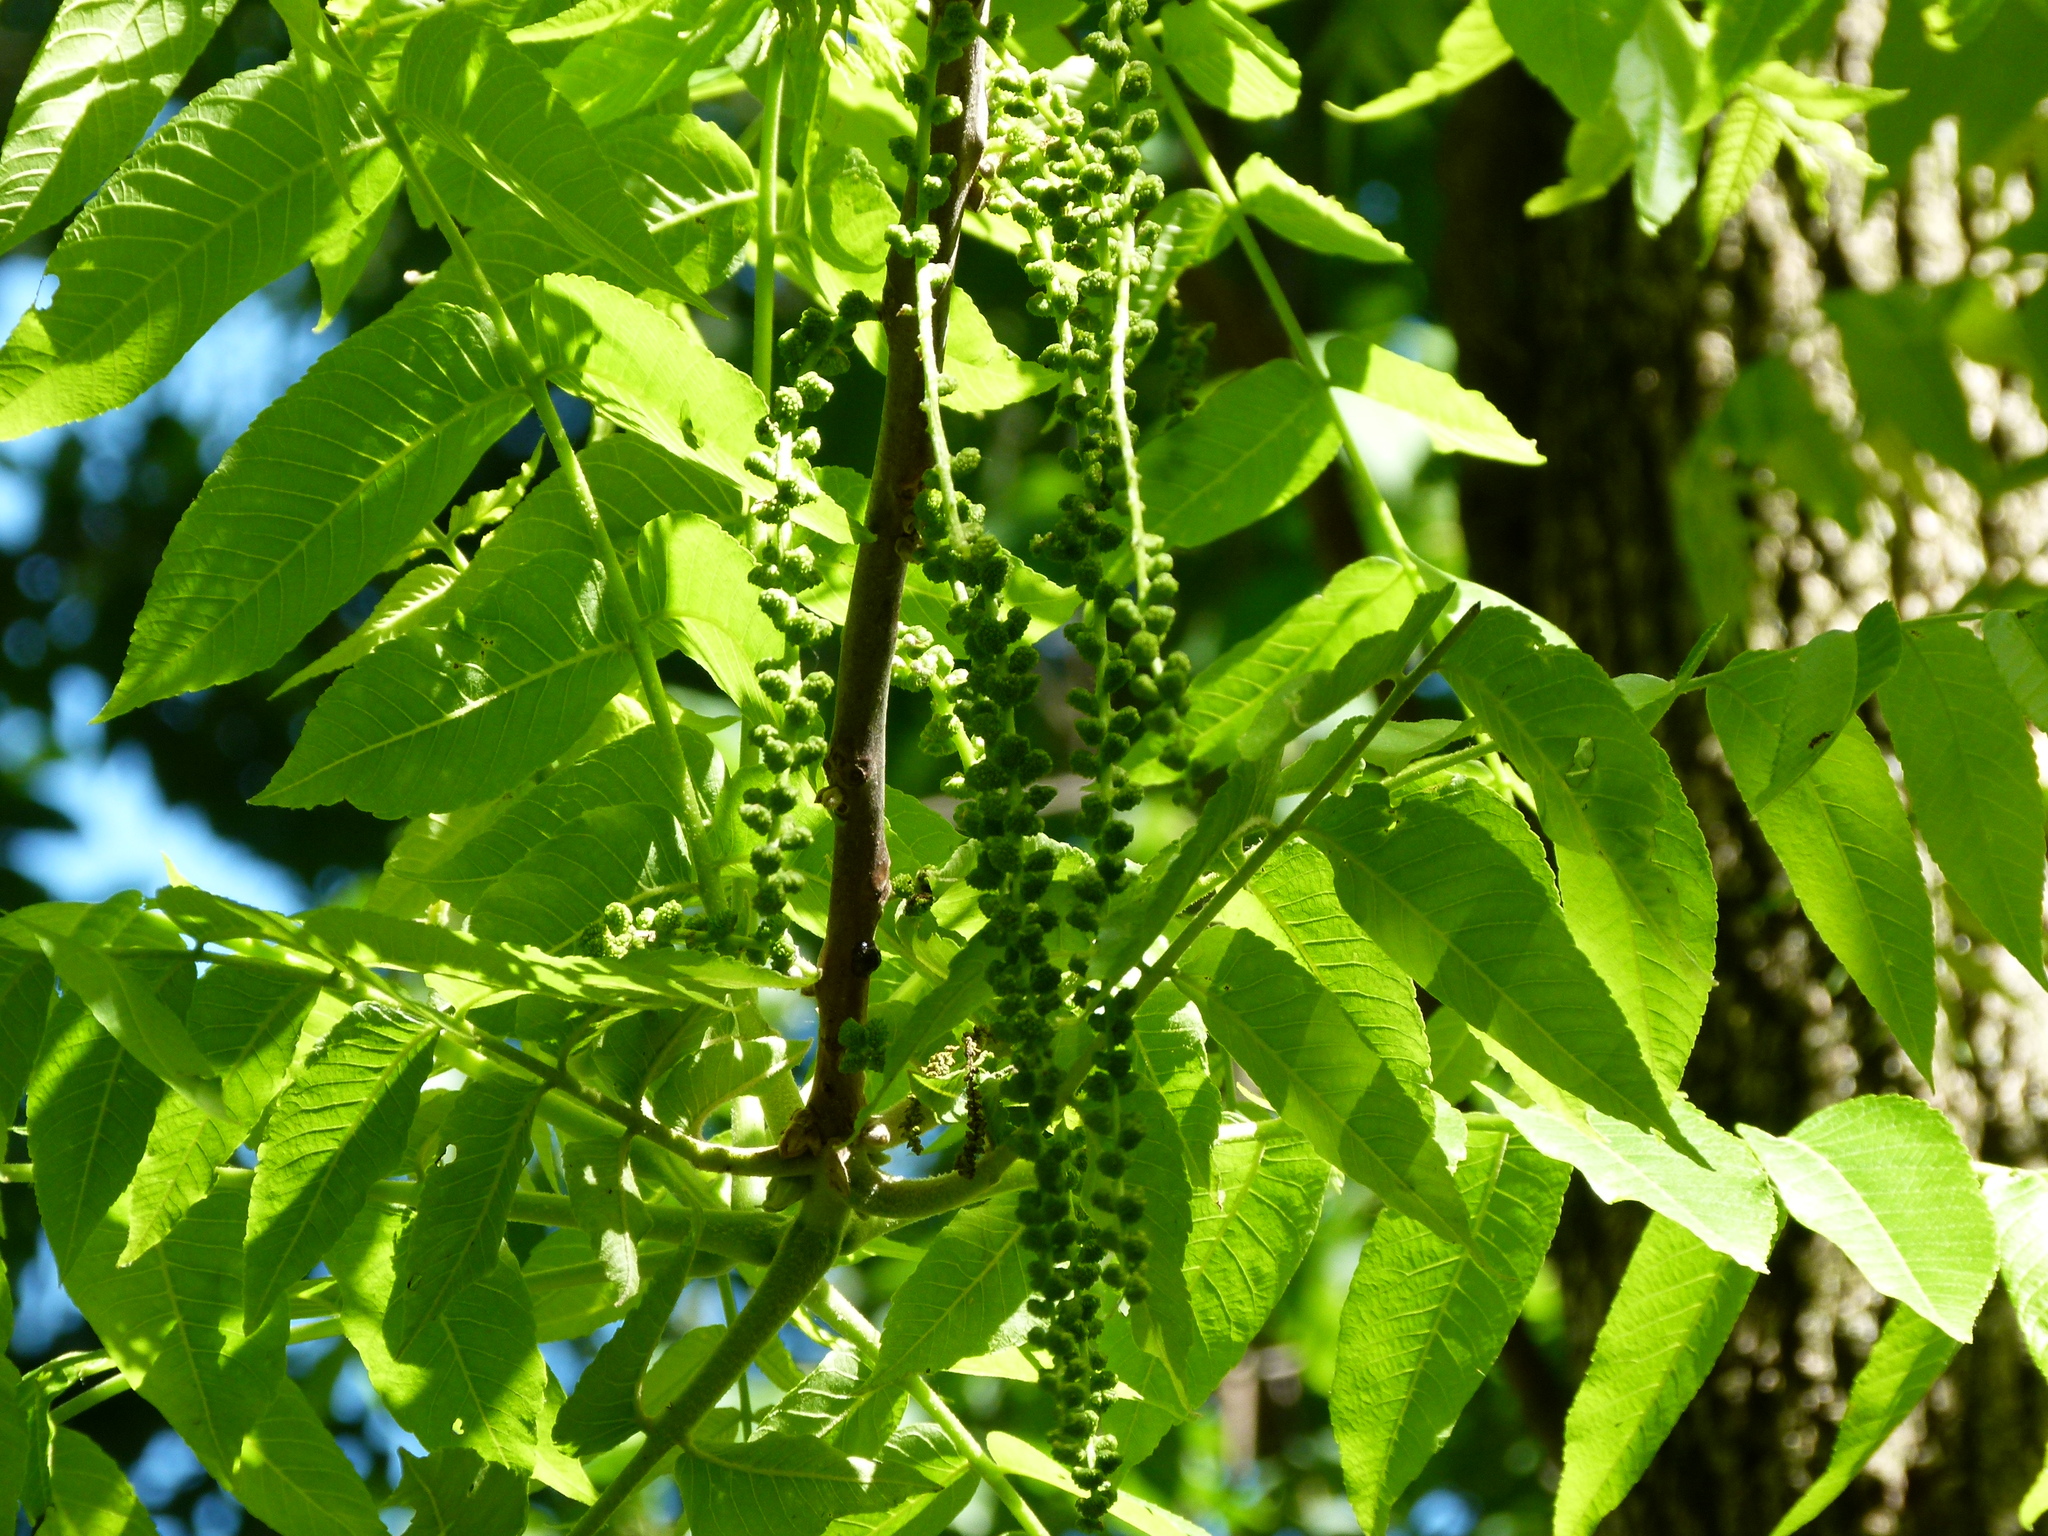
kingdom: Plantae
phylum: Tracheophyta
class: Magnoliopsida
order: Fagales
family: Juglandaceae
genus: Juglans
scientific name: Juglans nigra
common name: Black walnut
